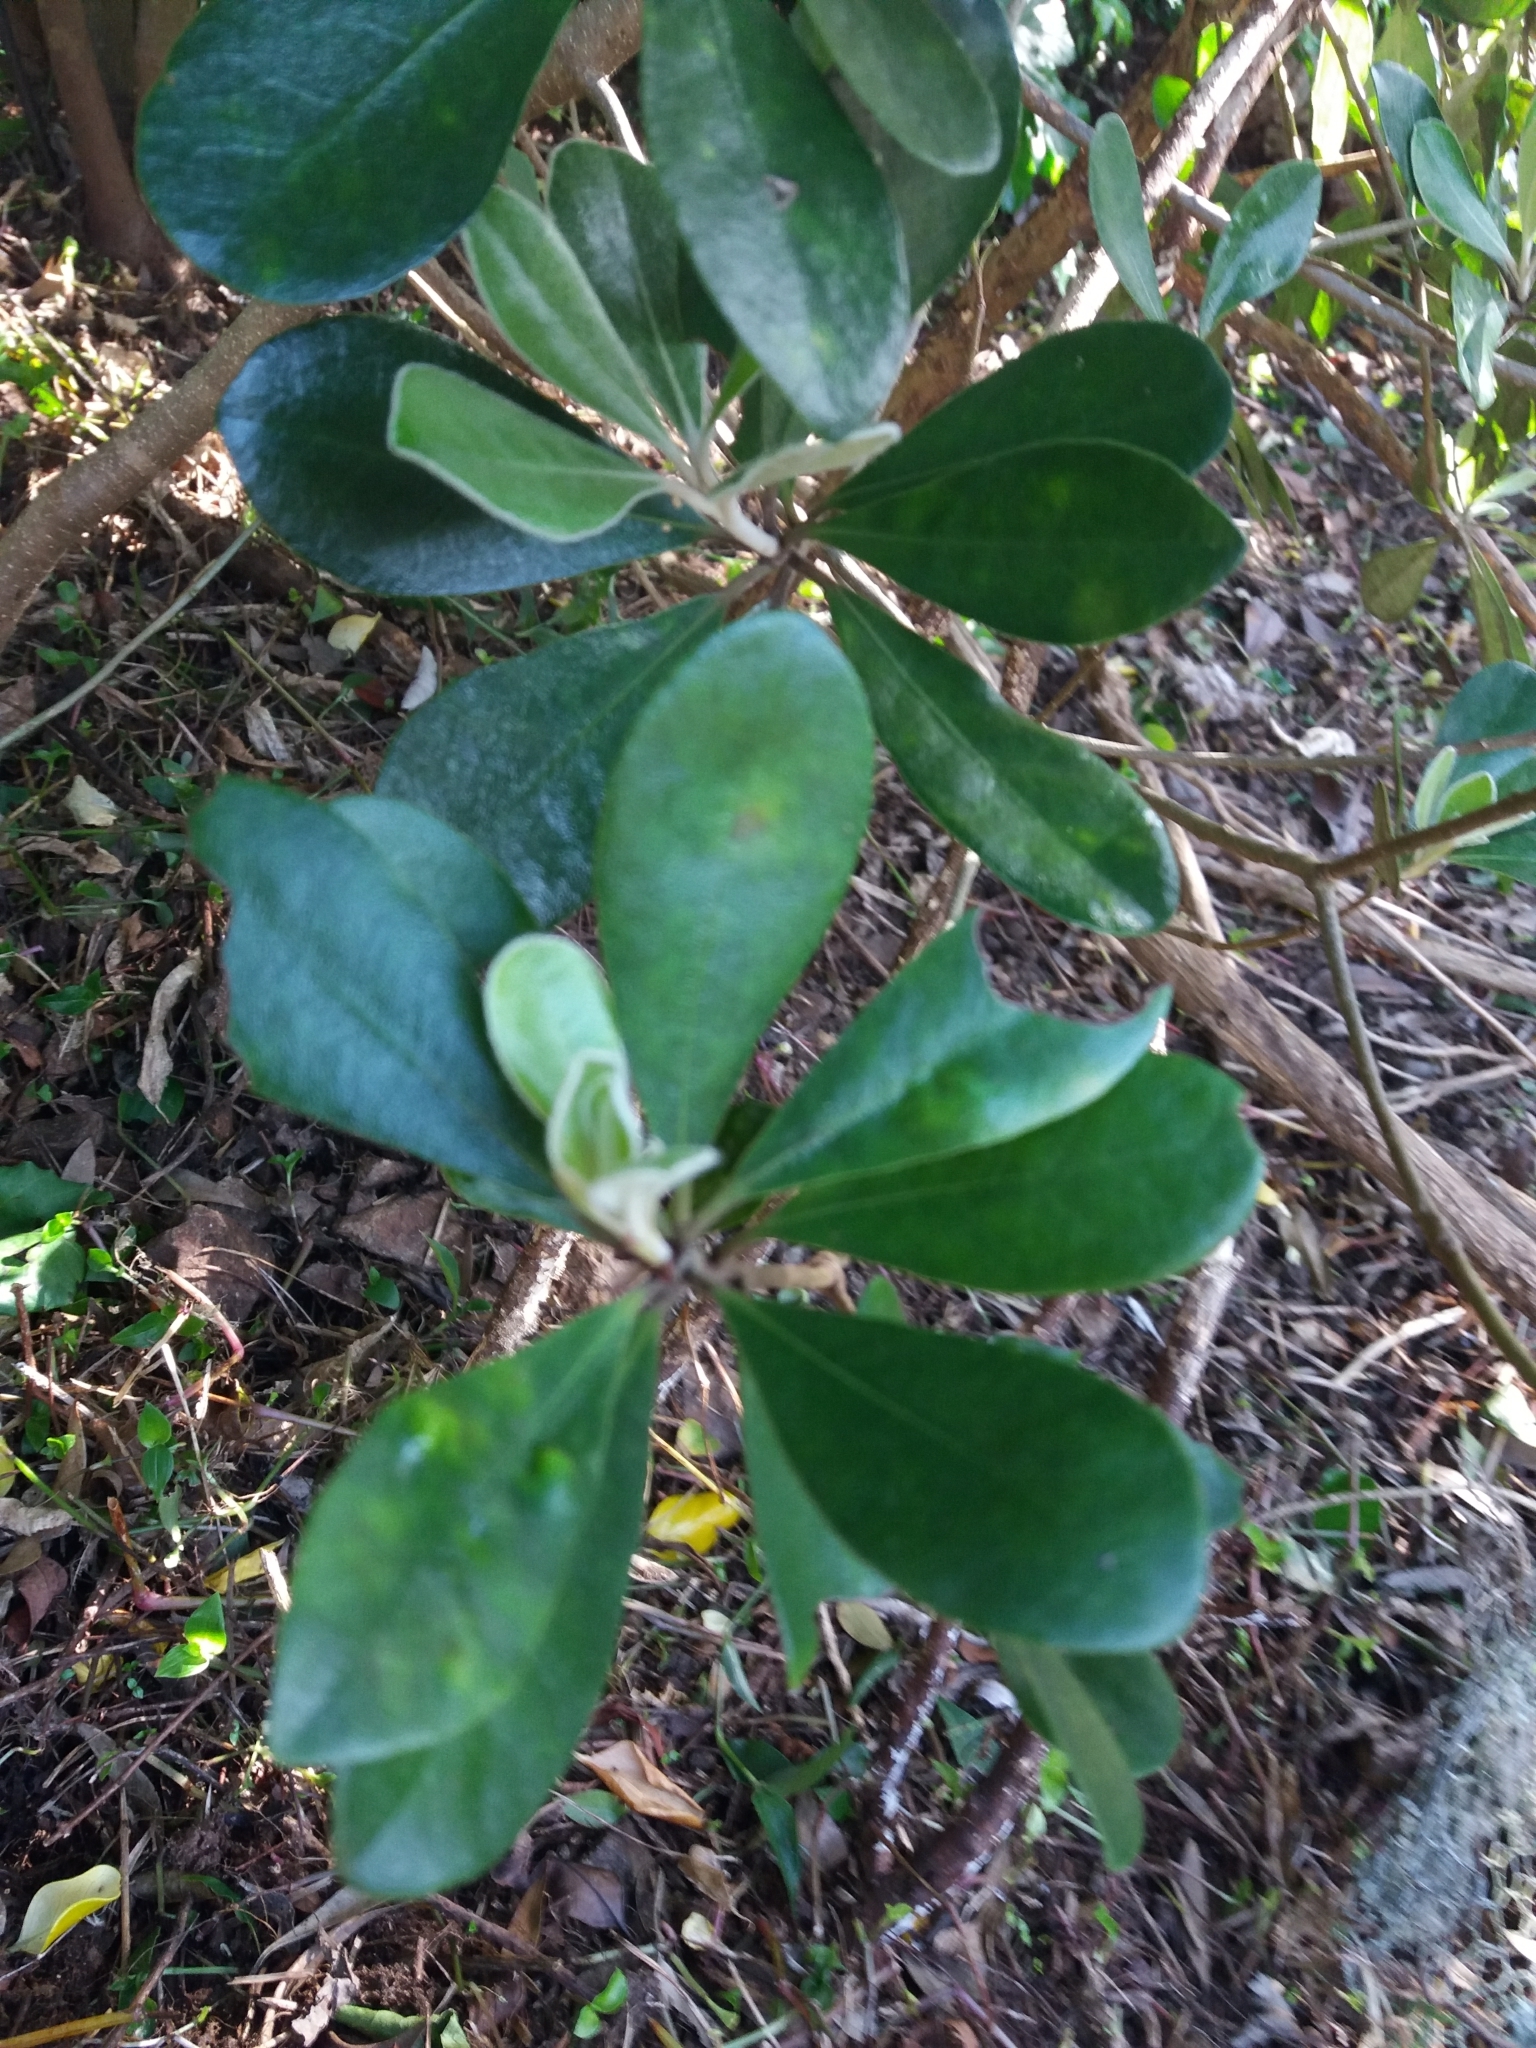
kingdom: Plantae
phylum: Tracheophyta
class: Magnoliopsida
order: Apiales
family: Pittosporaceae
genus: Pittosporum
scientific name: Pittosporum crassifolium
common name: Karo
